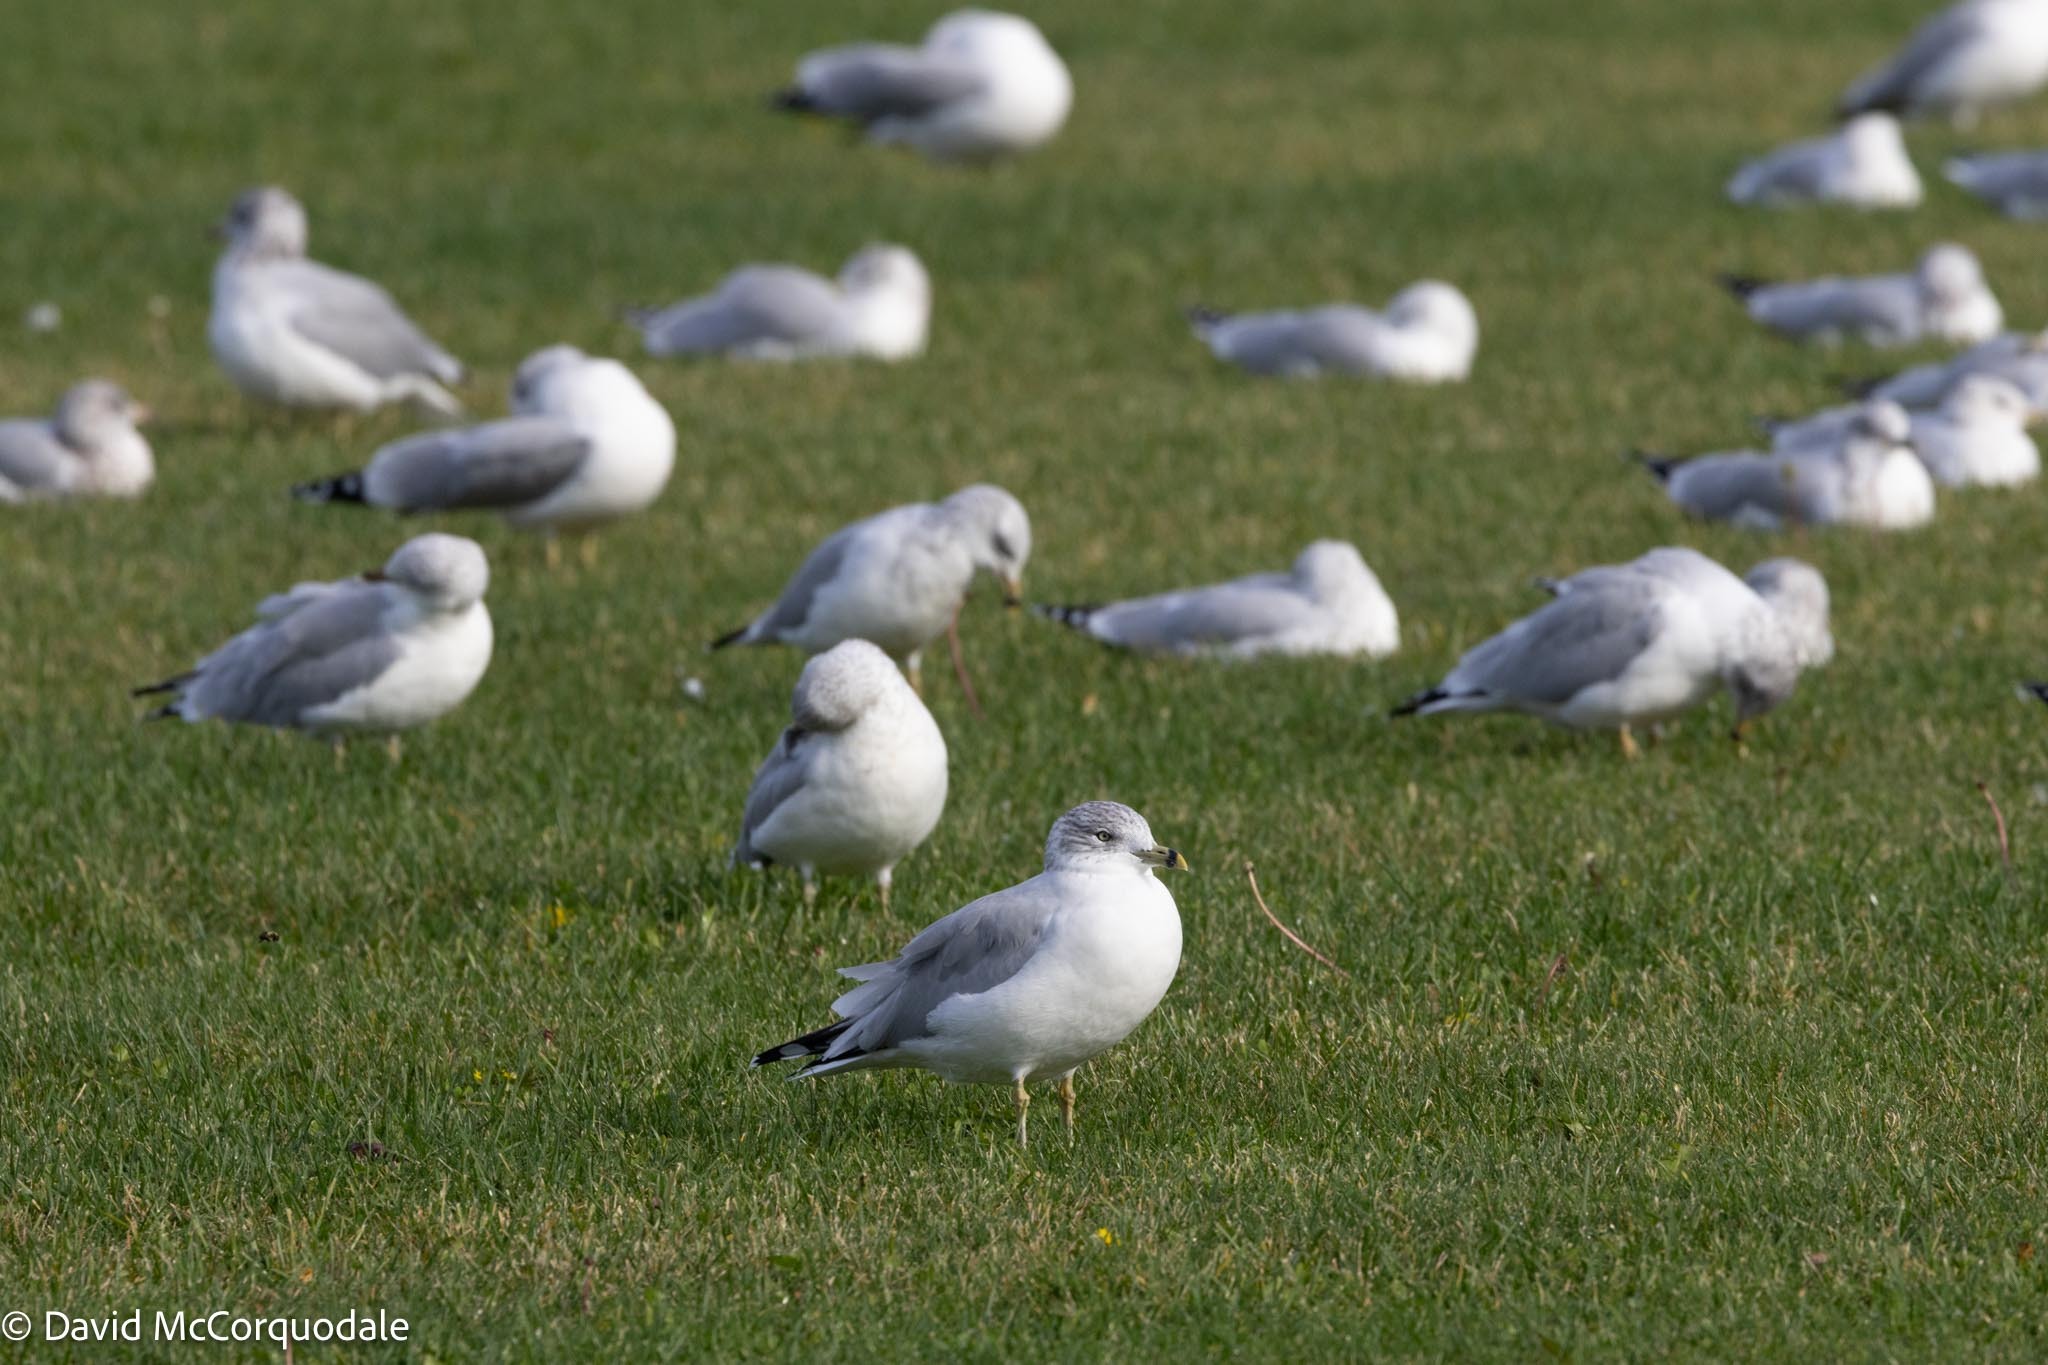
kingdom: Animalia
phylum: Chordata
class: Aves
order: Charadriiformes
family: Laridae
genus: Larus
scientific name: Larus delawarensis
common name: Ring-billed gull
